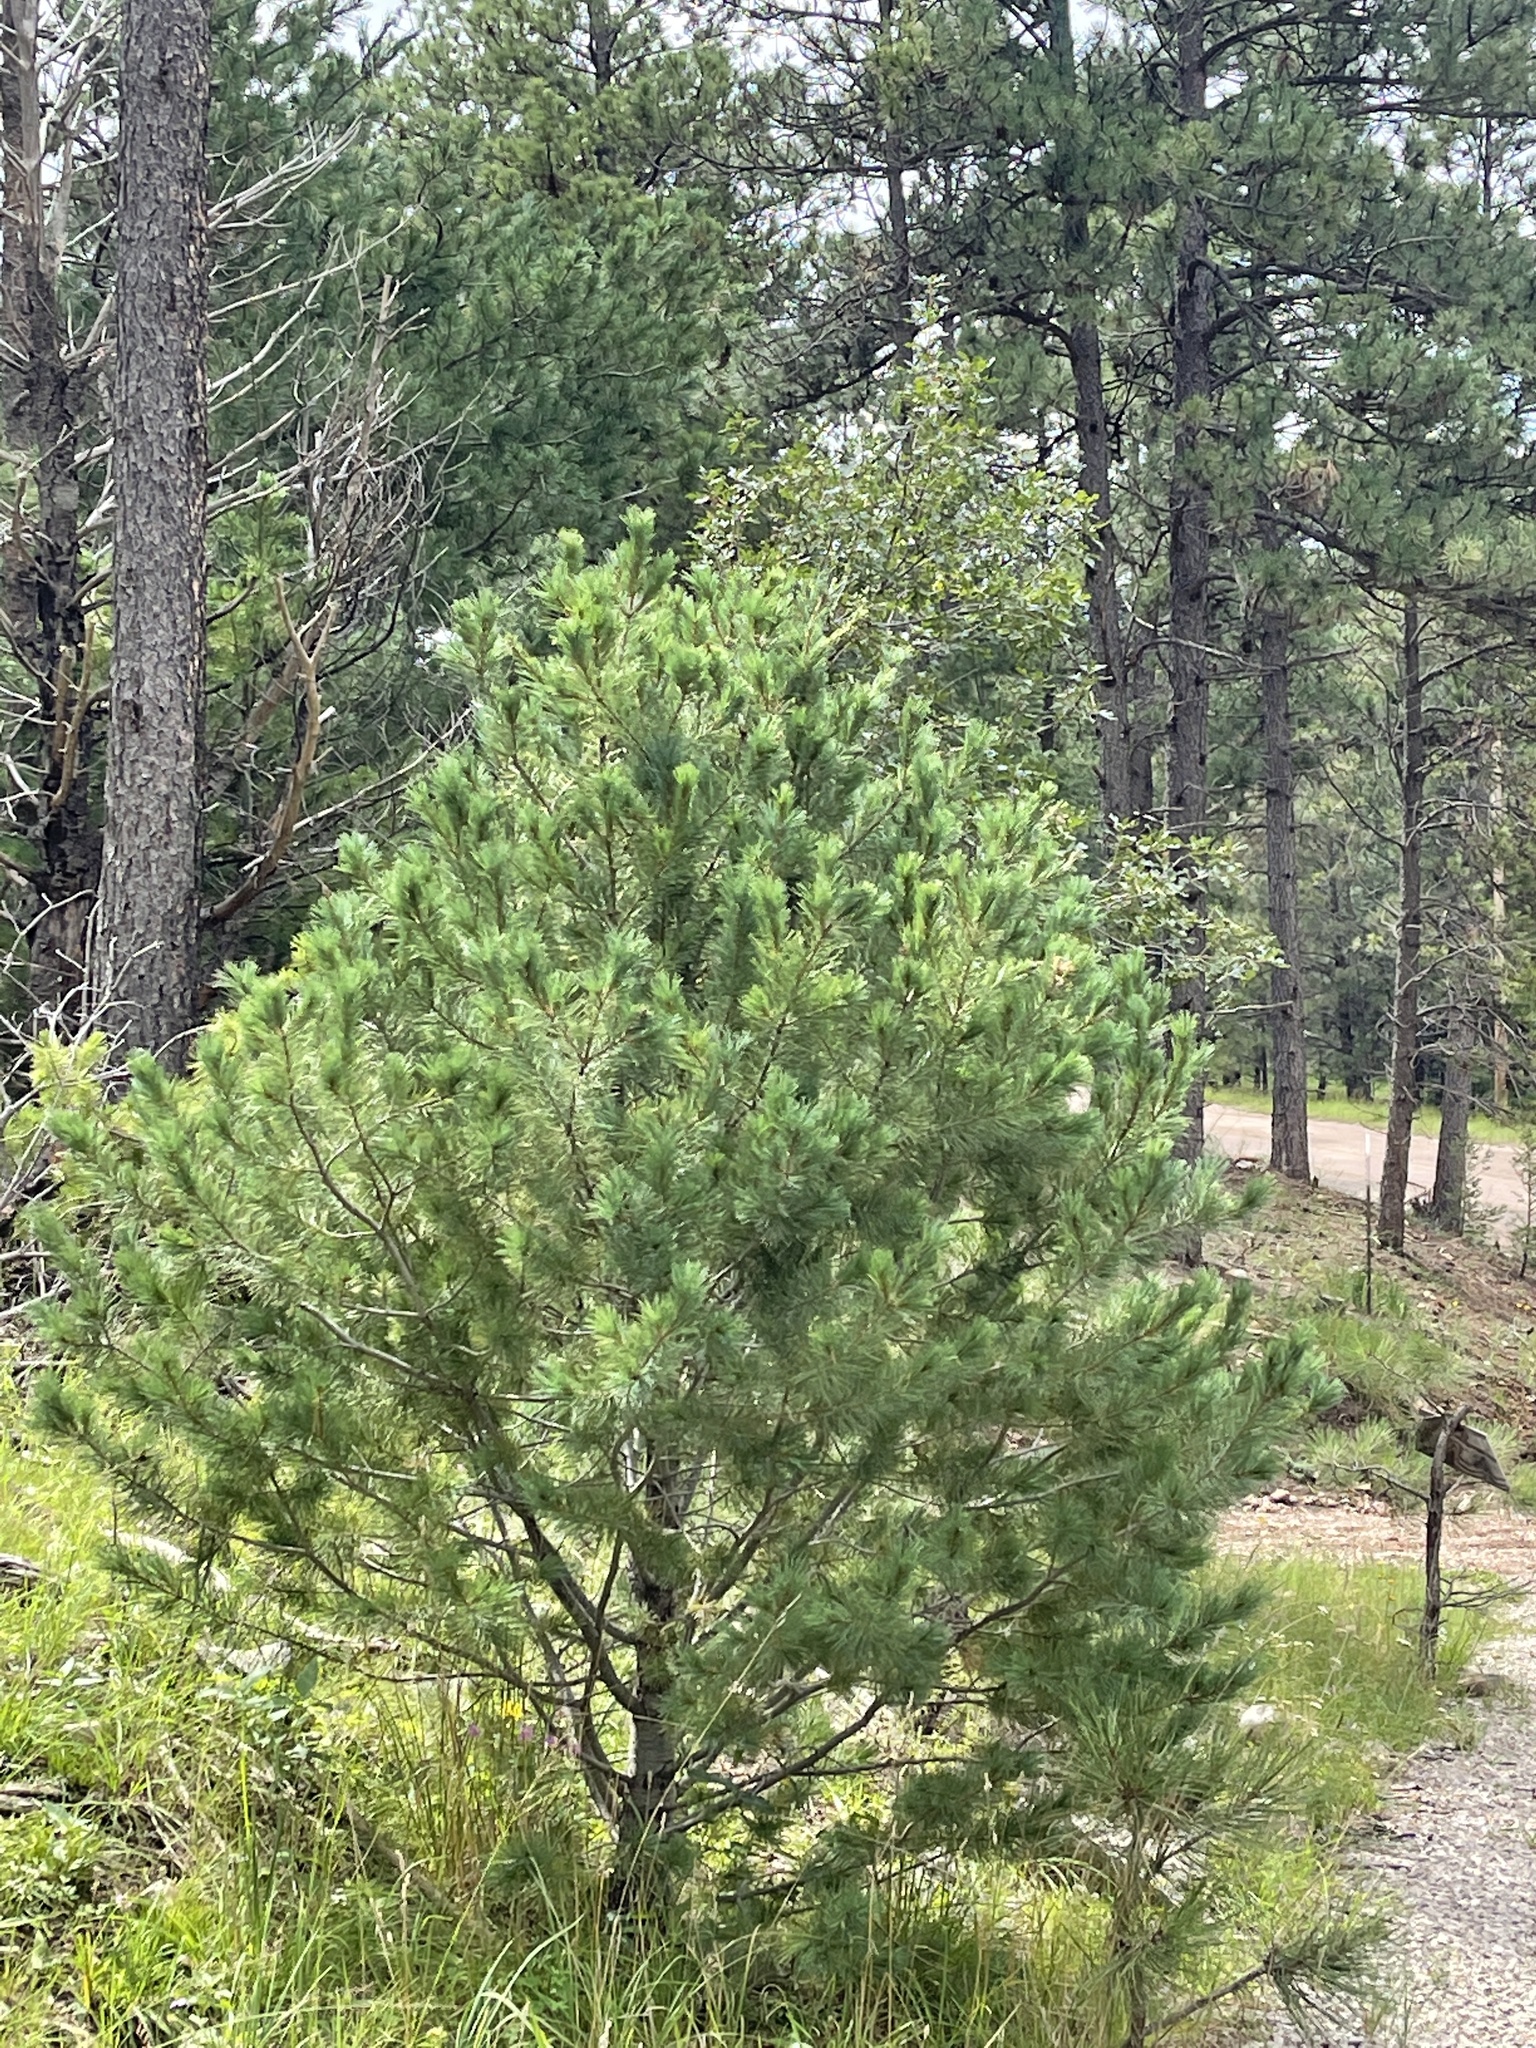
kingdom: Plantae
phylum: Tracheophyta
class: Pinopsida
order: Pinales
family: Pinaceae
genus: Pinus
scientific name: Pinus strobiformis
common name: Southwestern white pine
